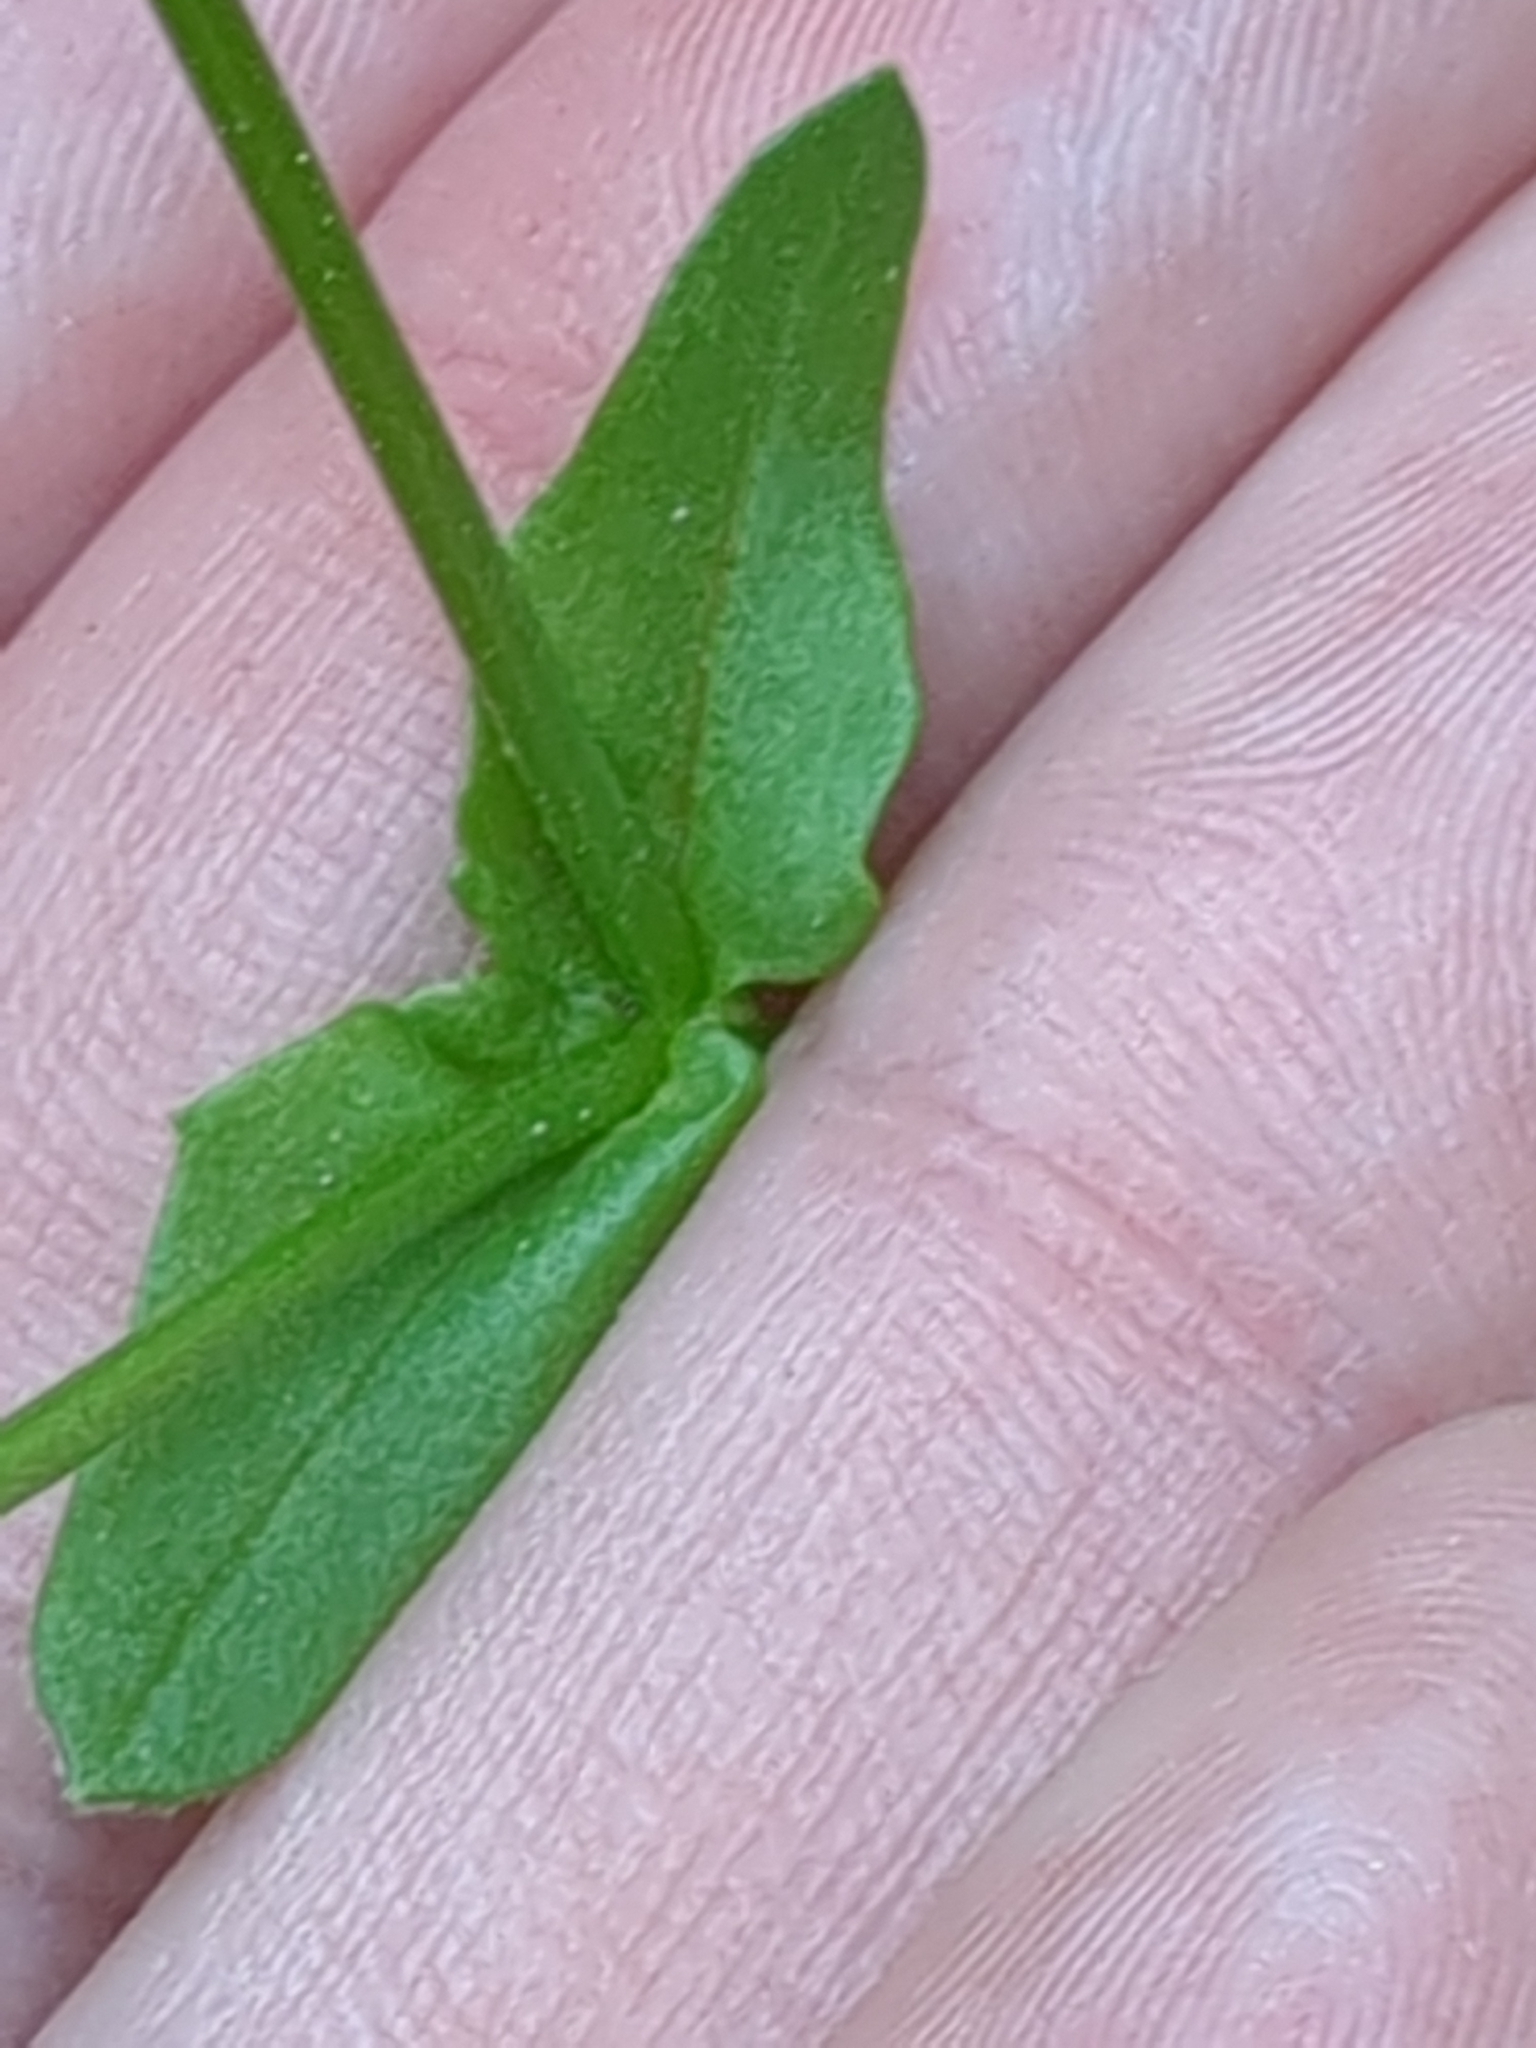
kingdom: Plantae
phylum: Tracheophyta
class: Magnoliopsida
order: Dipsacales
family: Caprifoliaceae
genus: Valerianella
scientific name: Valerianella radiata
